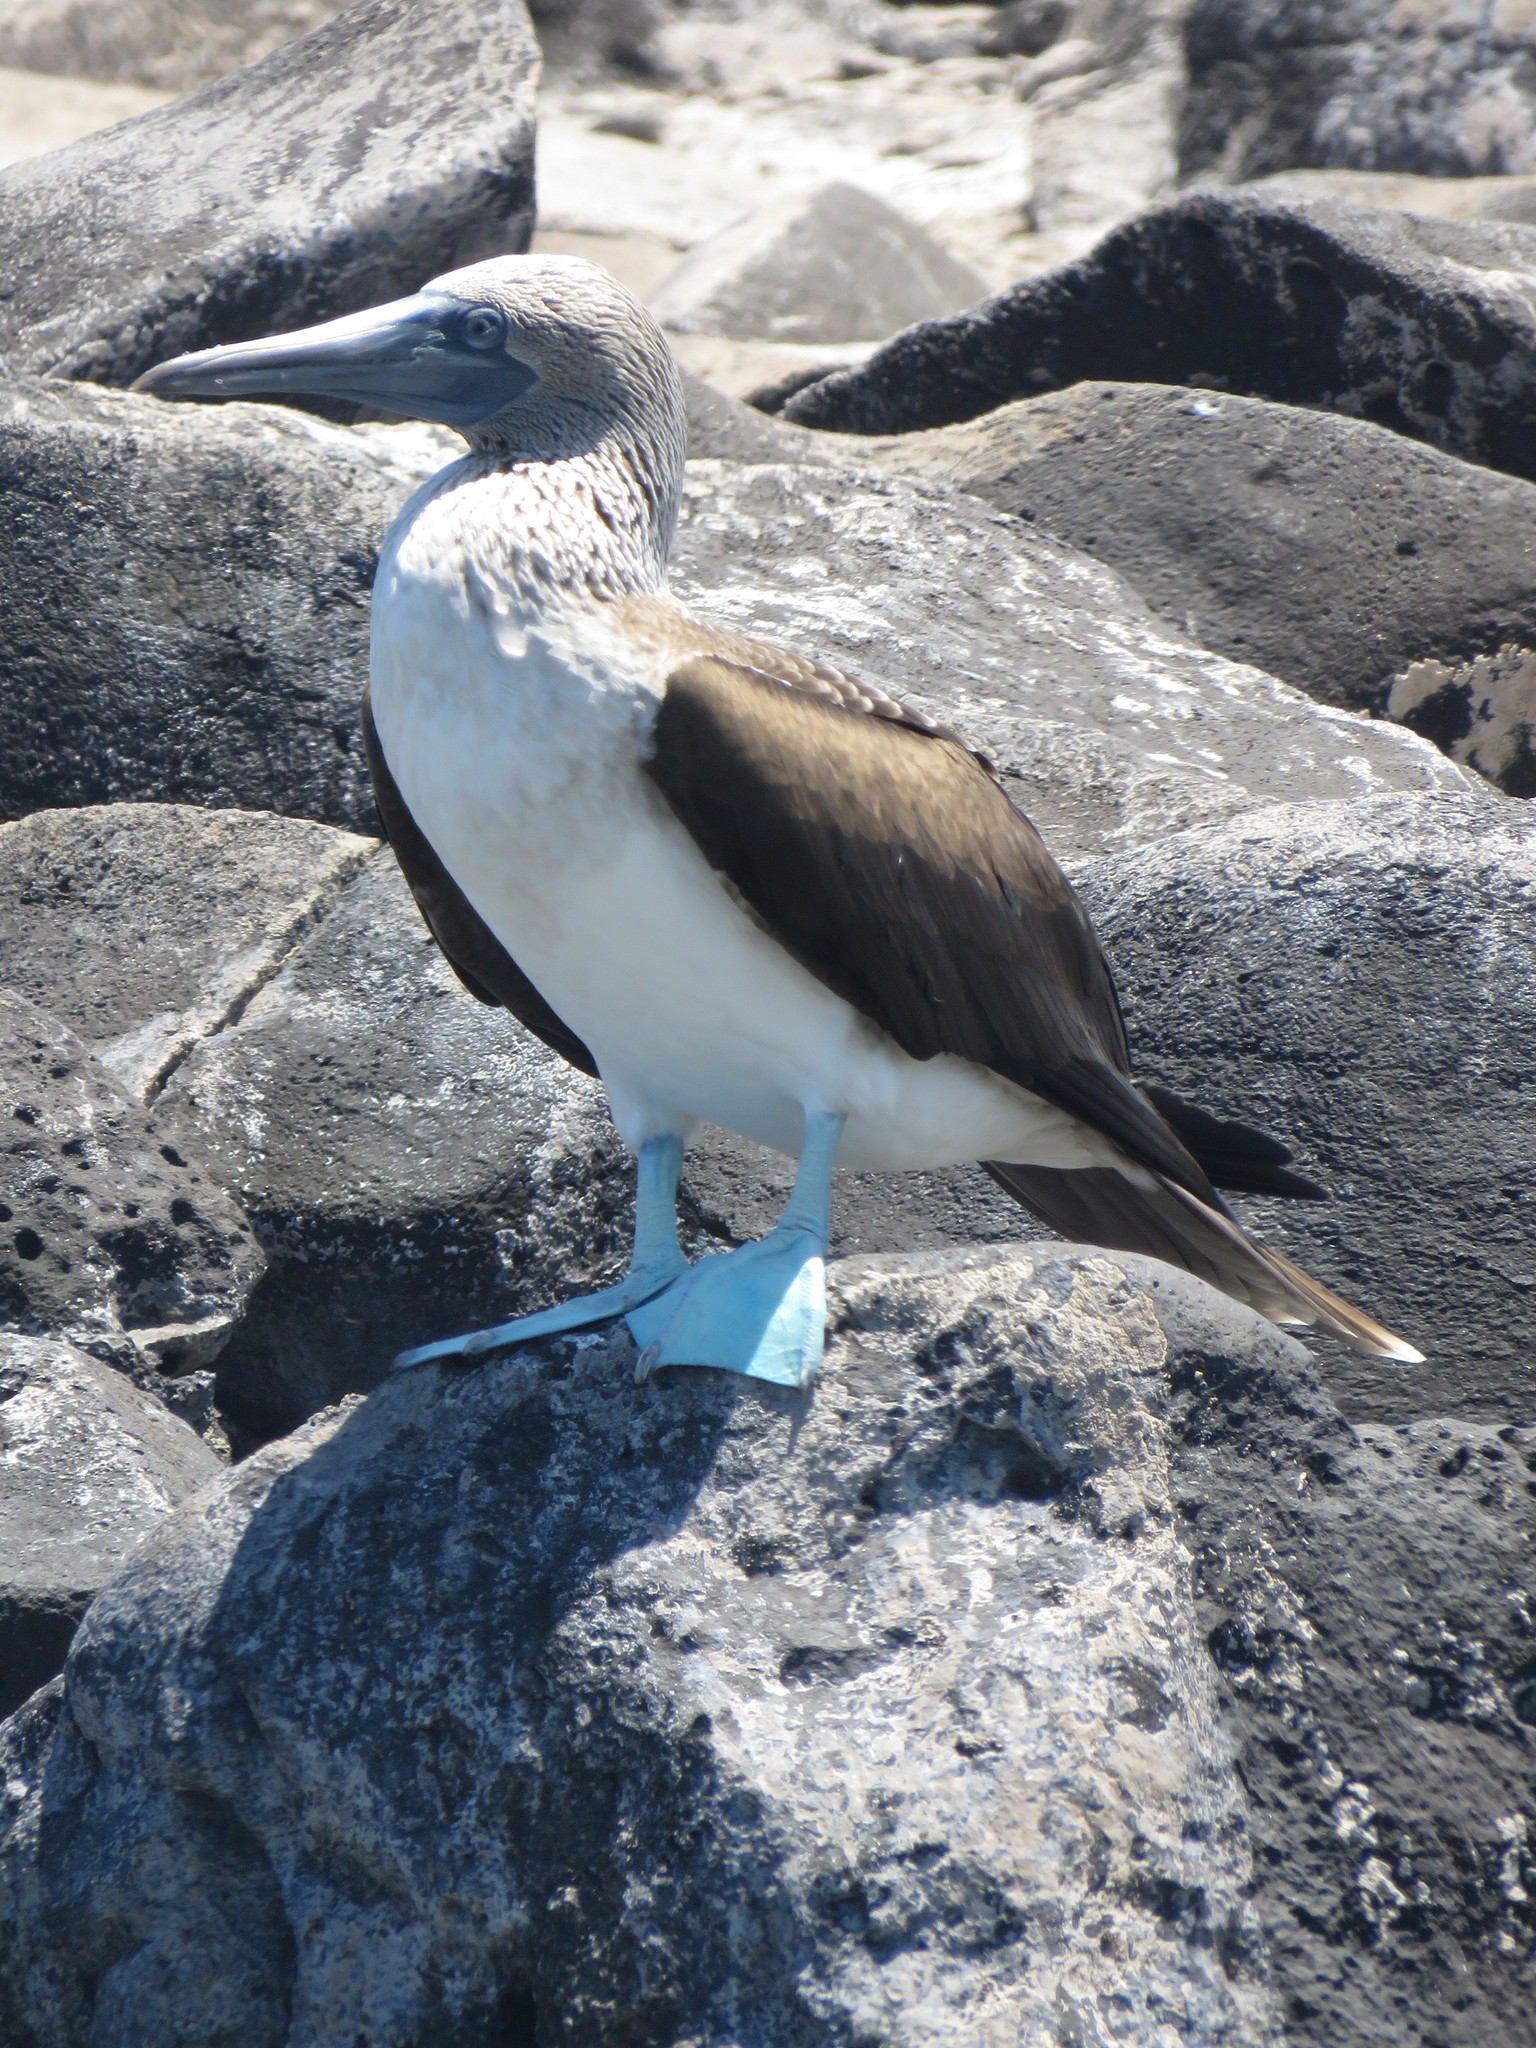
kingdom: Animalia
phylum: Chordata
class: Aves
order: Suliformes
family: Sulidae
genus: Sula
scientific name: Sula nebouxii
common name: Blue-footed booby
